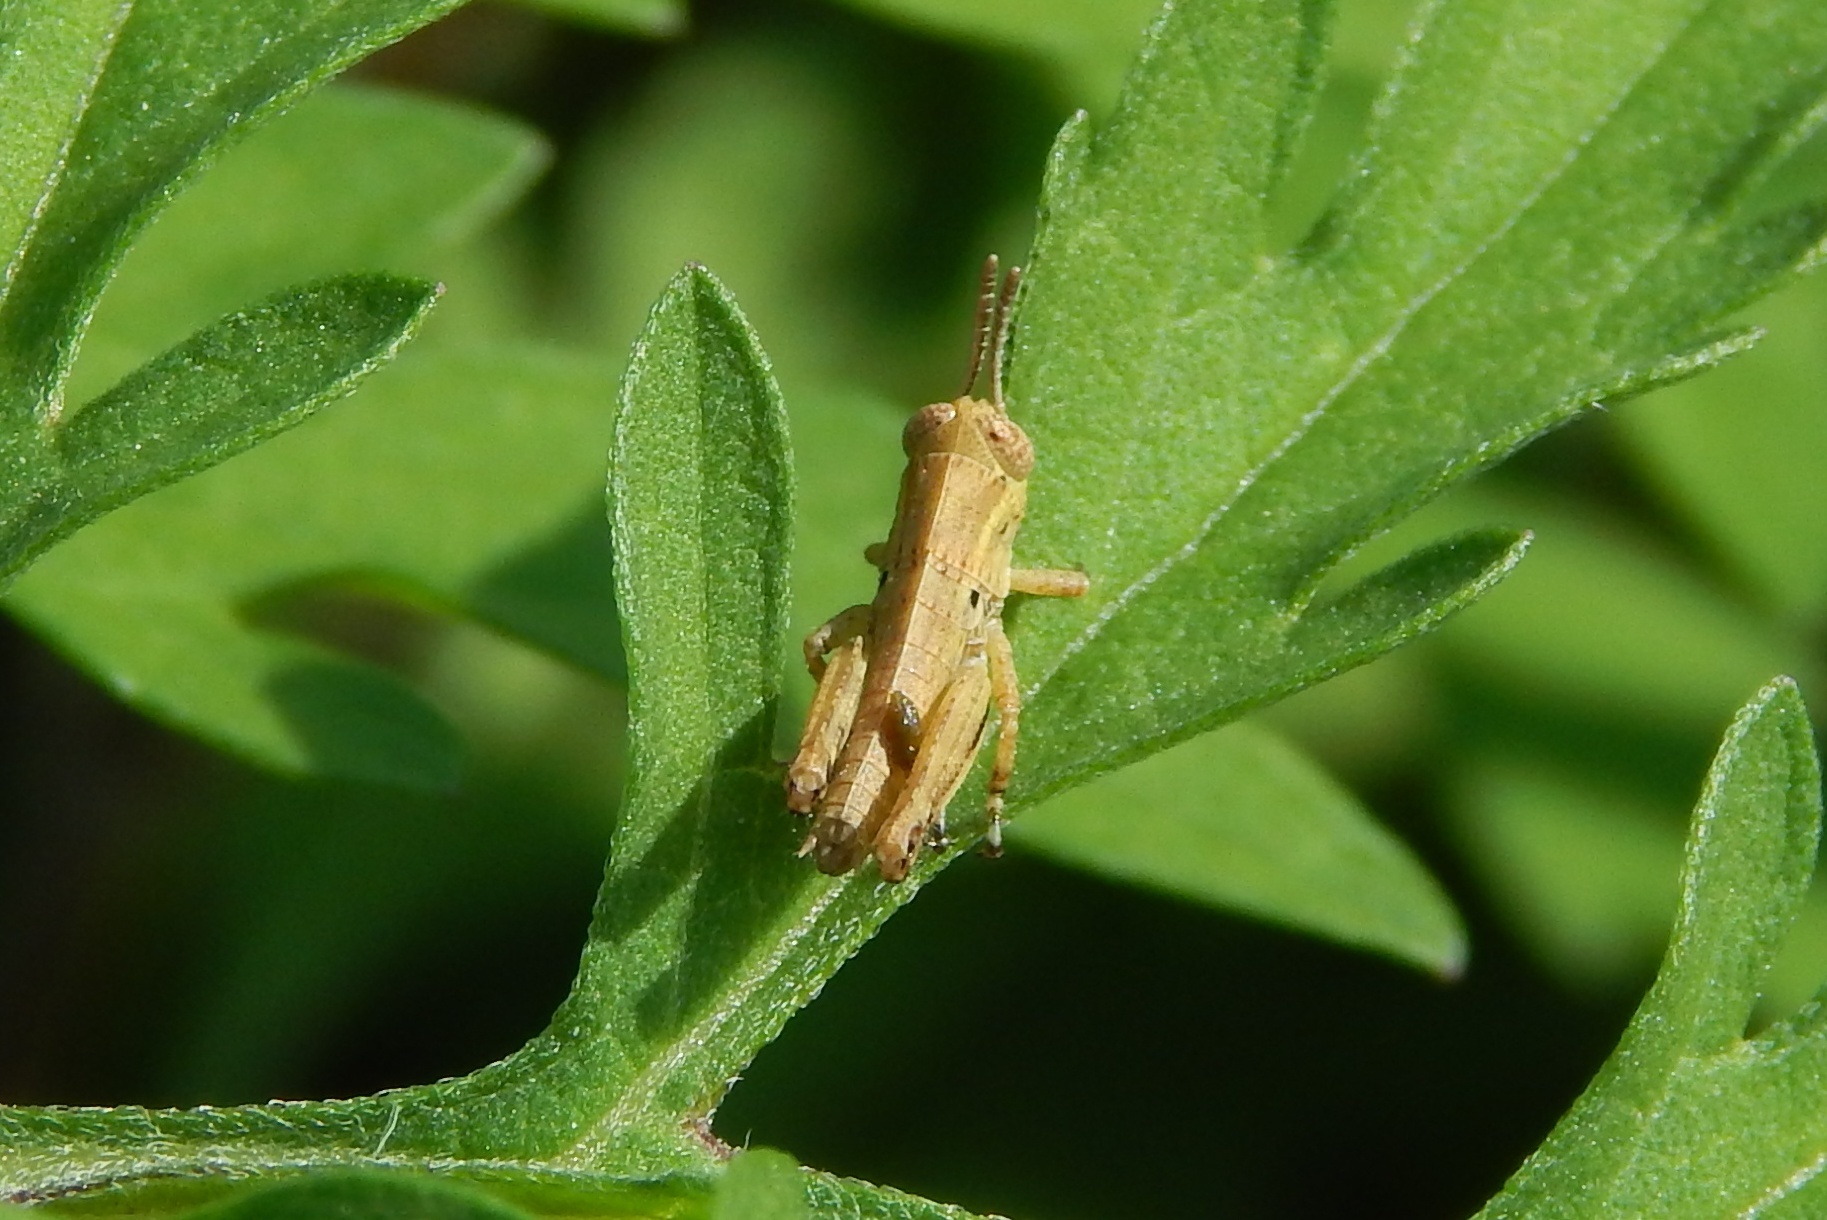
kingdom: Animalia
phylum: Arthropoda
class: Insecta
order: Orthoptera
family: Acrididae
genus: Melanoplus
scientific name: Melanoplus
